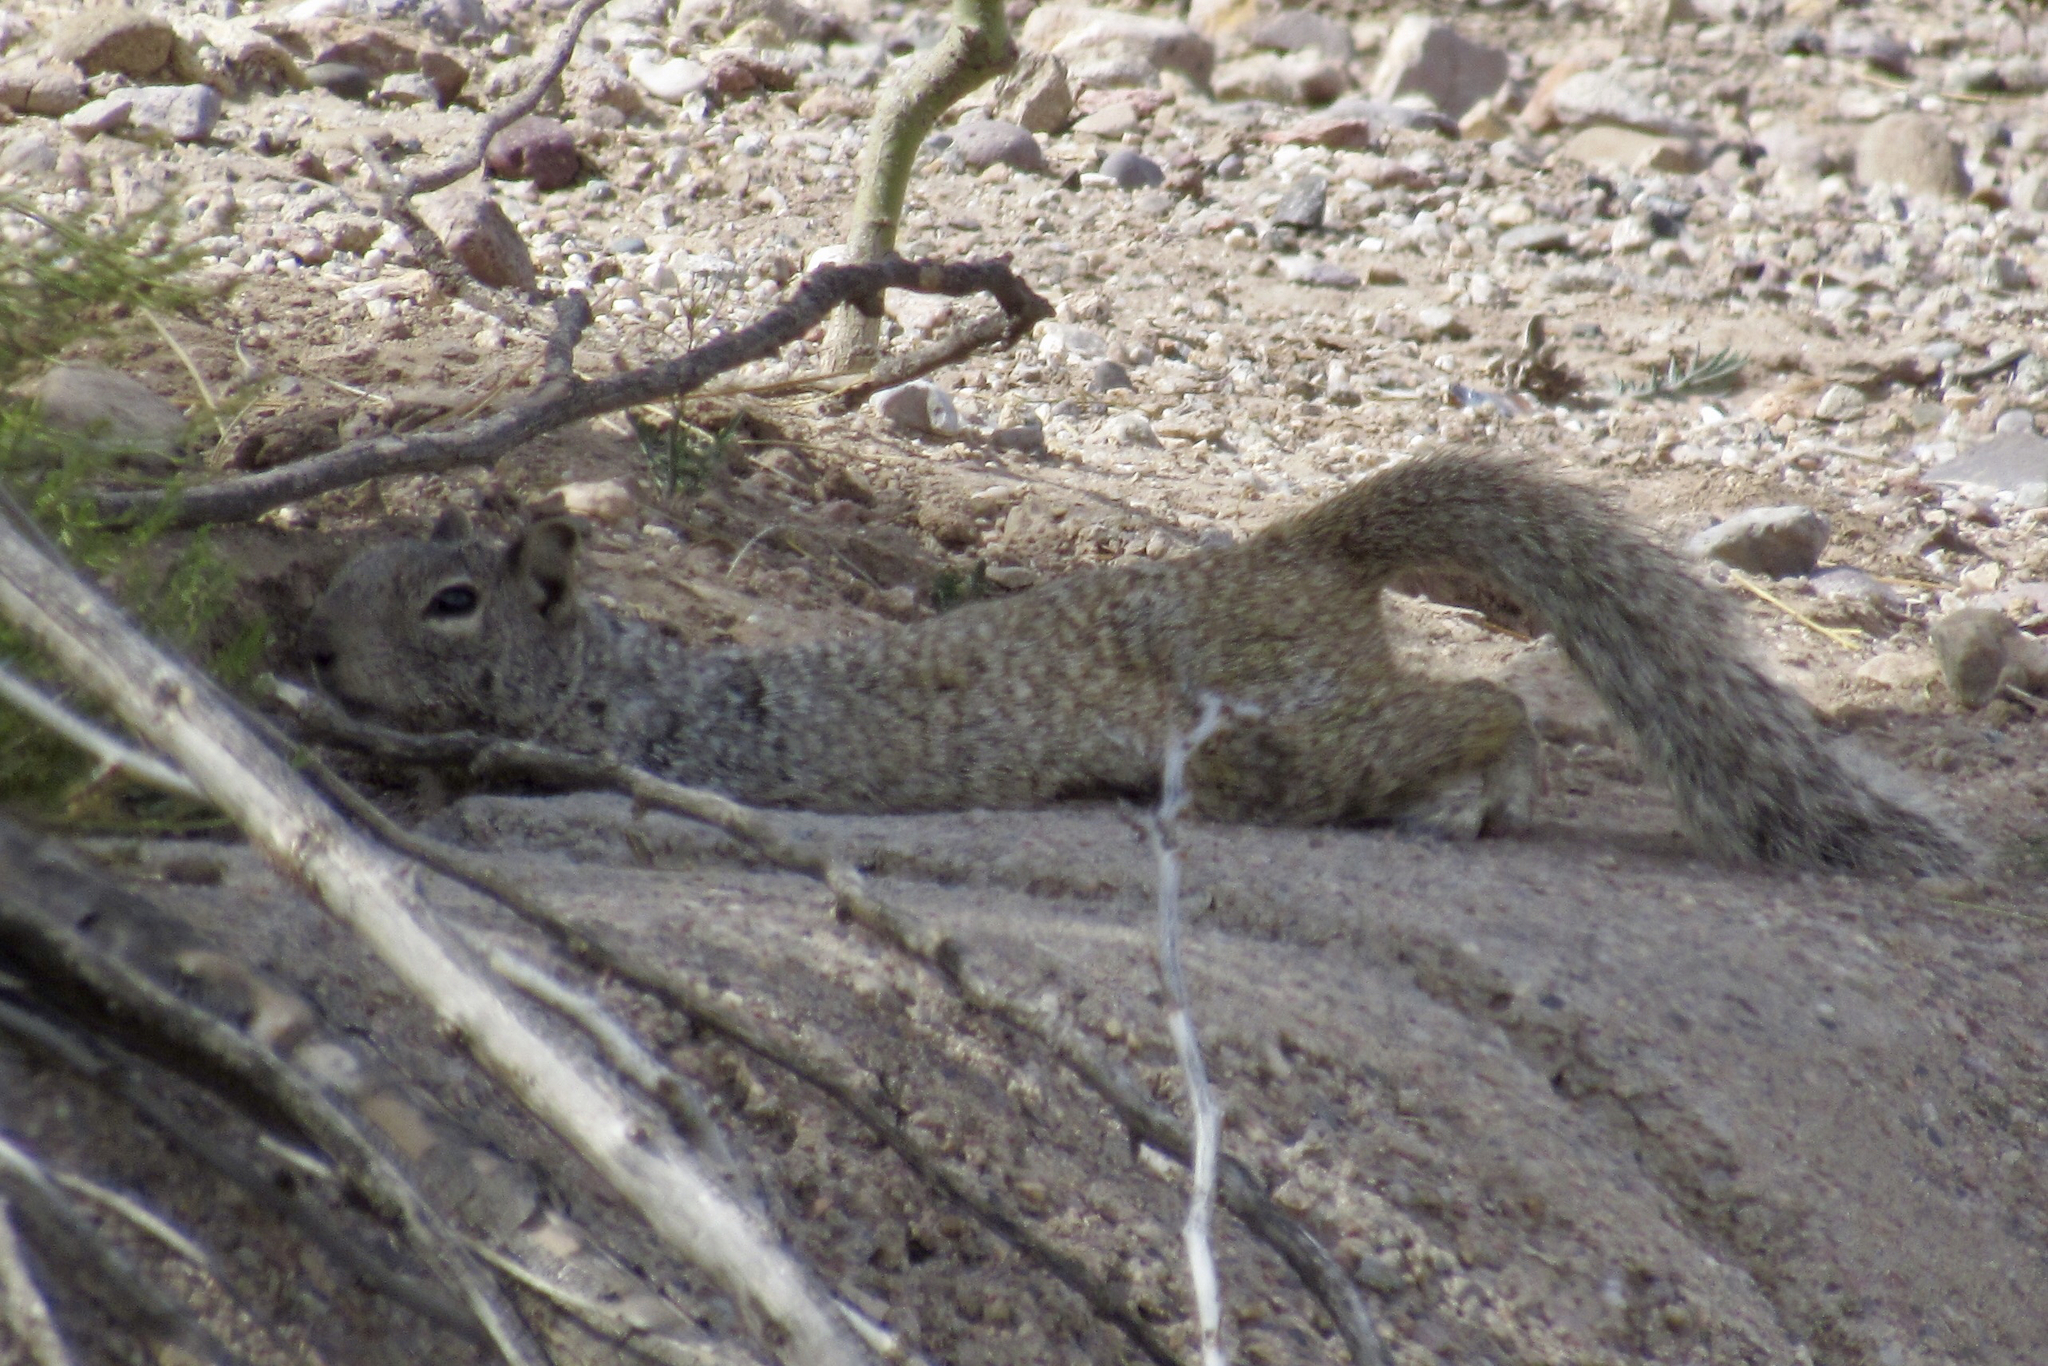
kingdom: Animalia
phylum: Chordata
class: Mammalia
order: Rodentia
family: Sciuridae
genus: Otospermophilus
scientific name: Otospermophilus variegatus
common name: Rock squirrel
